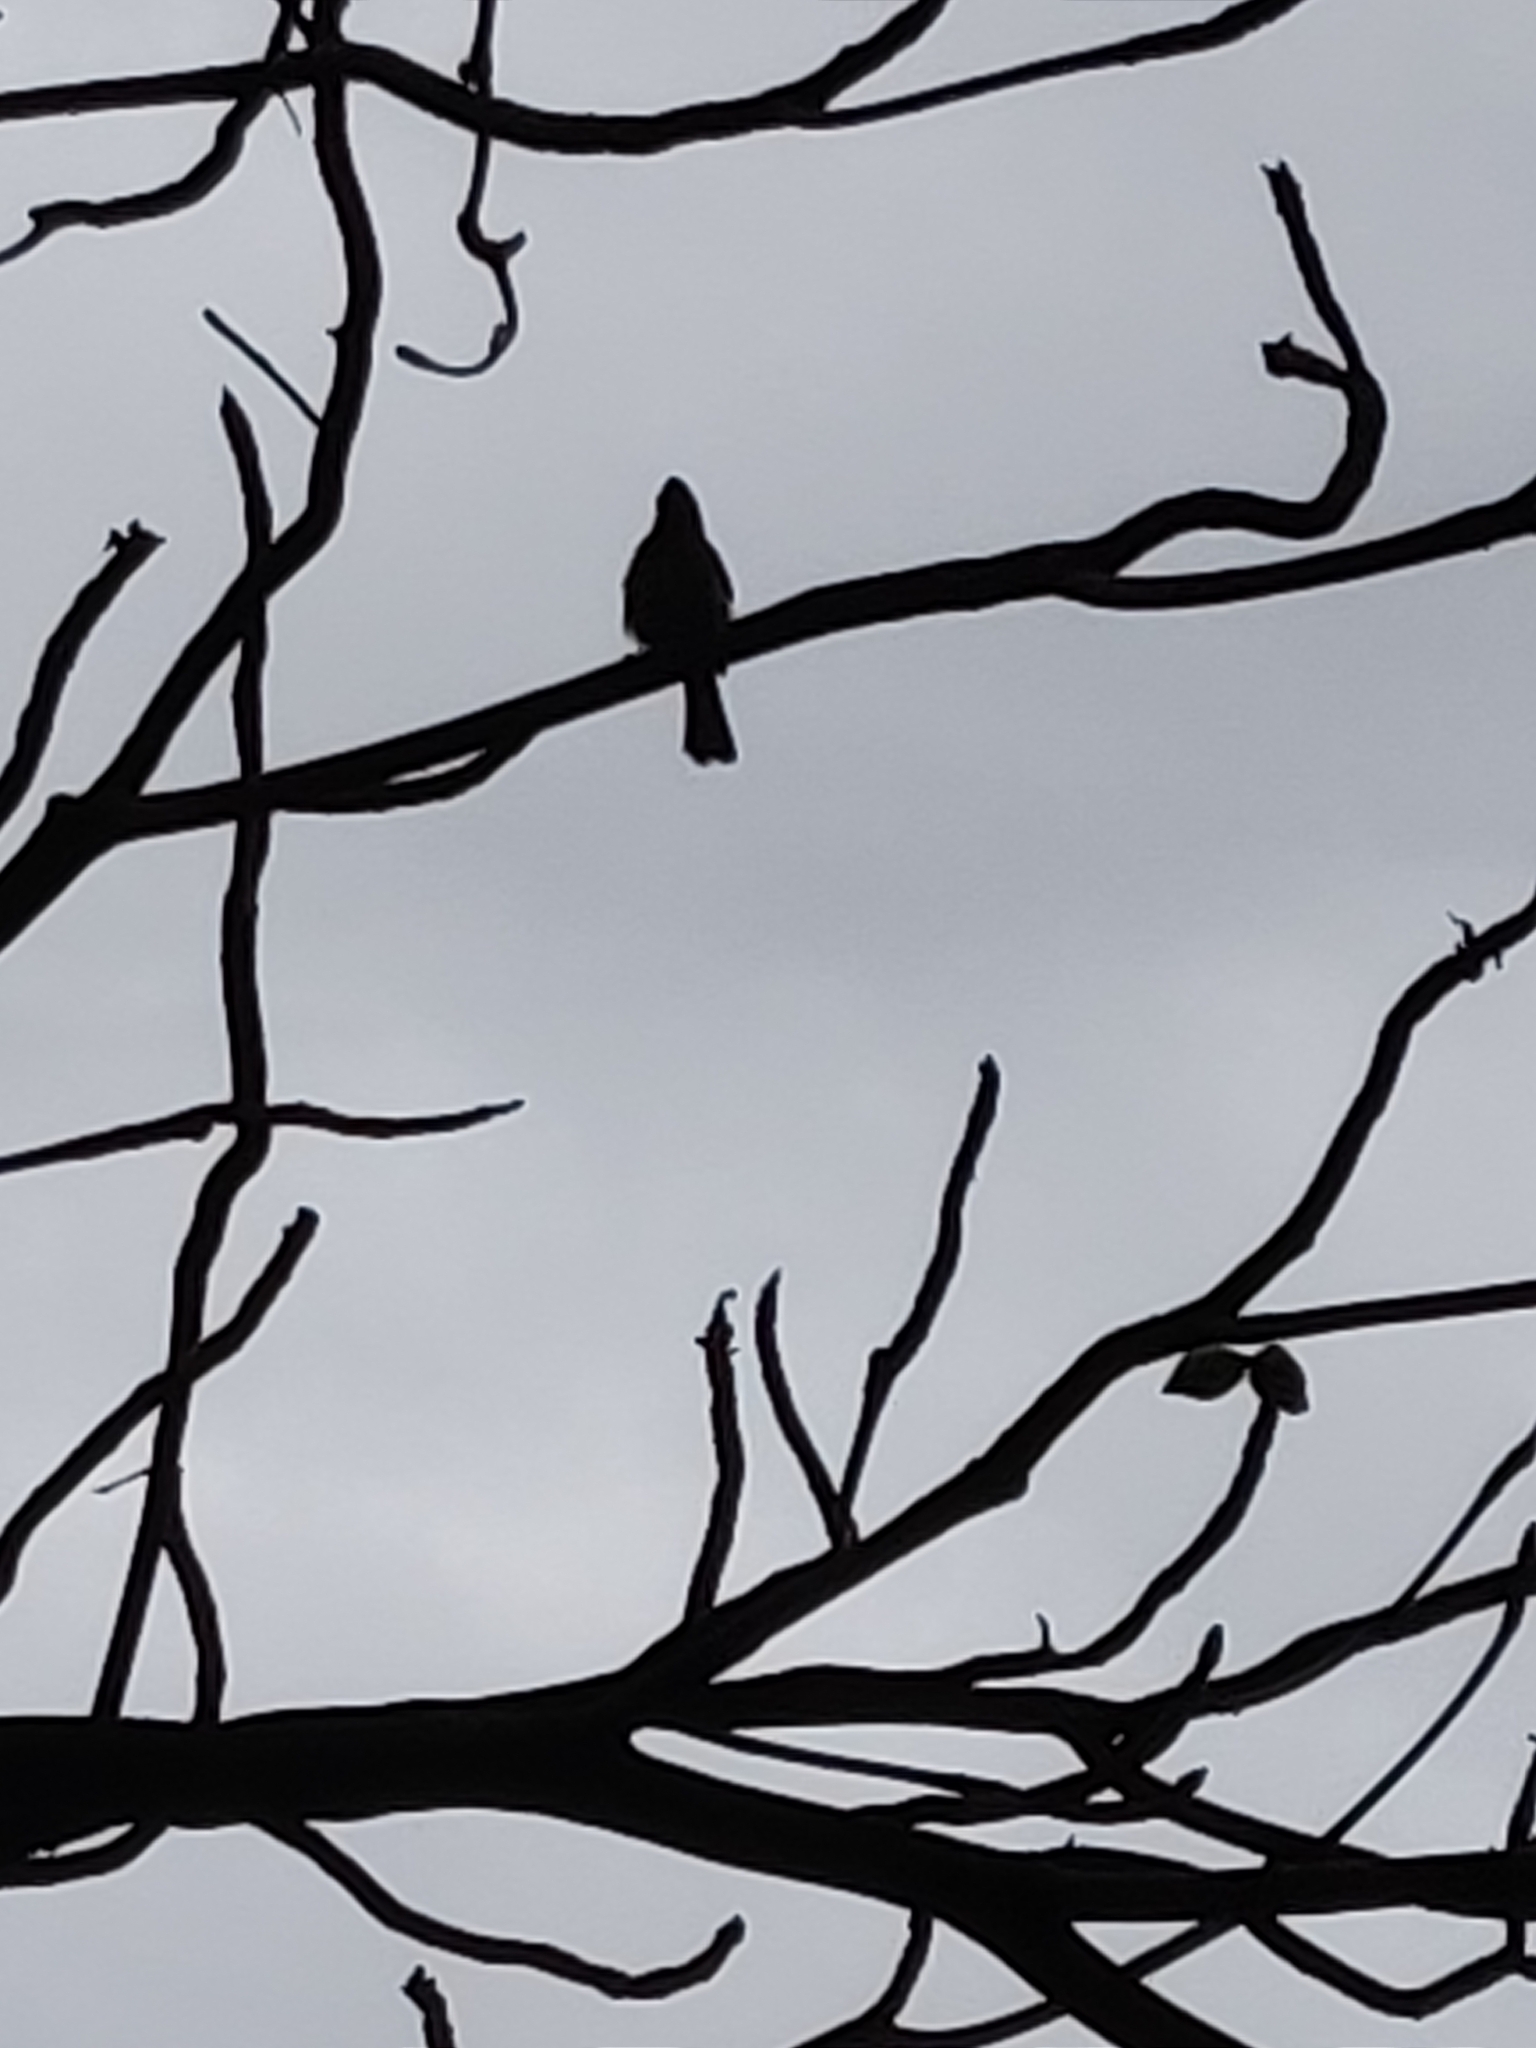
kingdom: Animalia
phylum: Chordata
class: Aves
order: Passeriformes
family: Pycnonotidae
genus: Pycnonotus
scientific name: Pycnonotus cafer
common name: Red-vented bulbul
